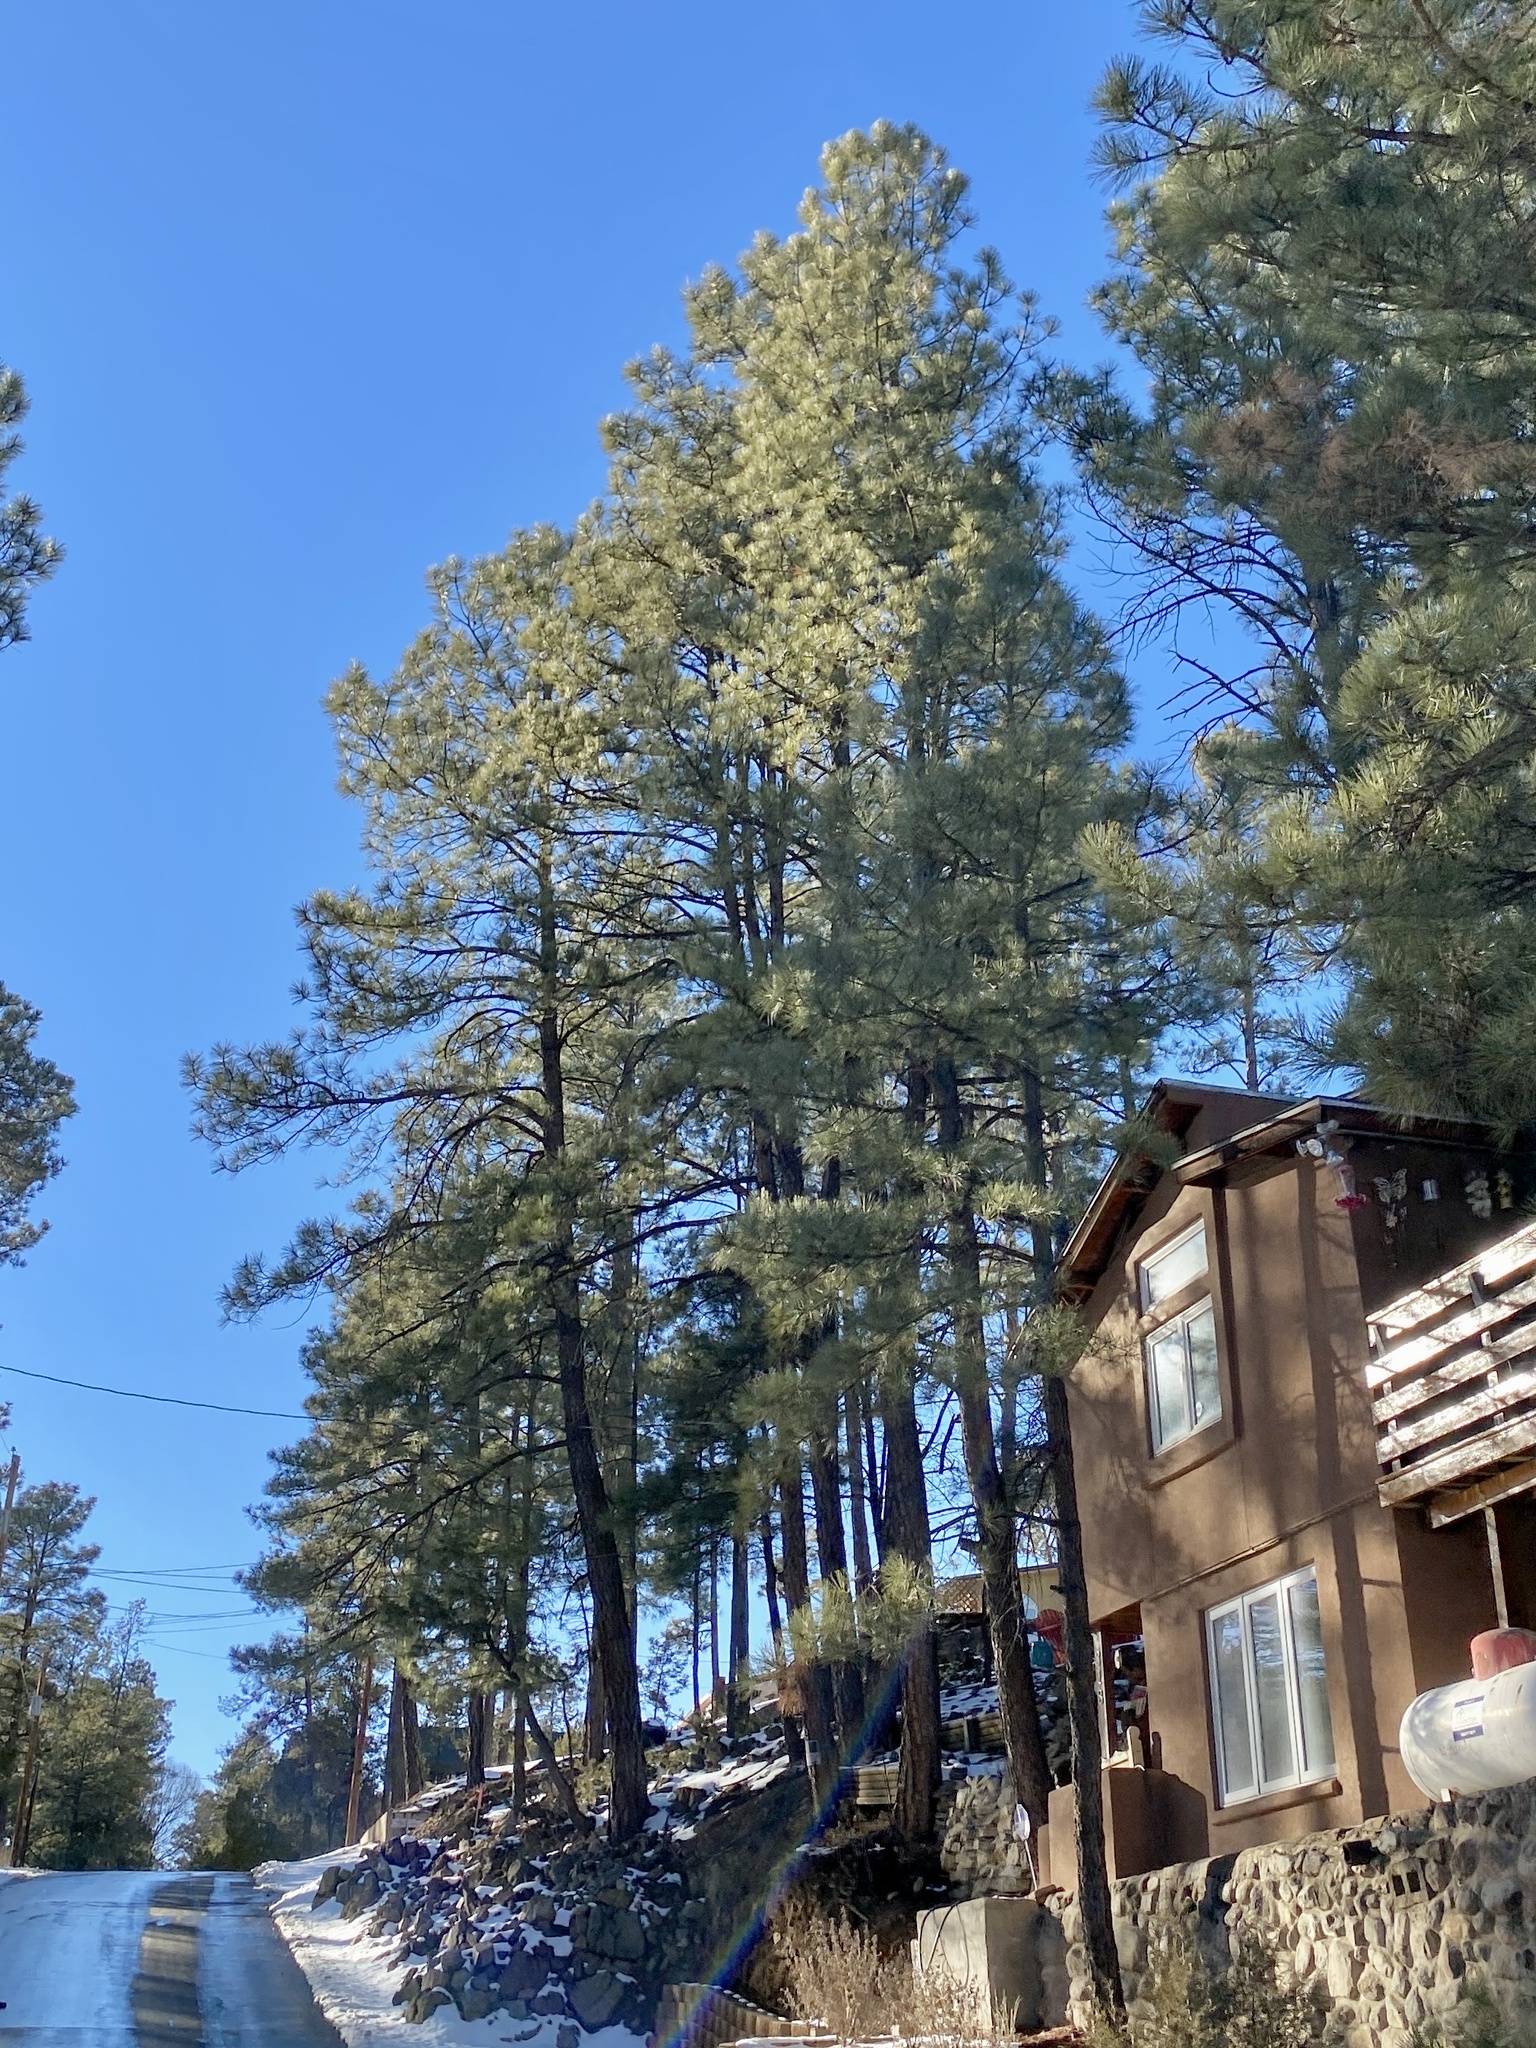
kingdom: Plantae
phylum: Tracheophyta
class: Pinopsida
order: Pinales
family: Pinaceae
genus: Pinus
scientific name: Pinus ponderosa
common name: Western yellow-pine
